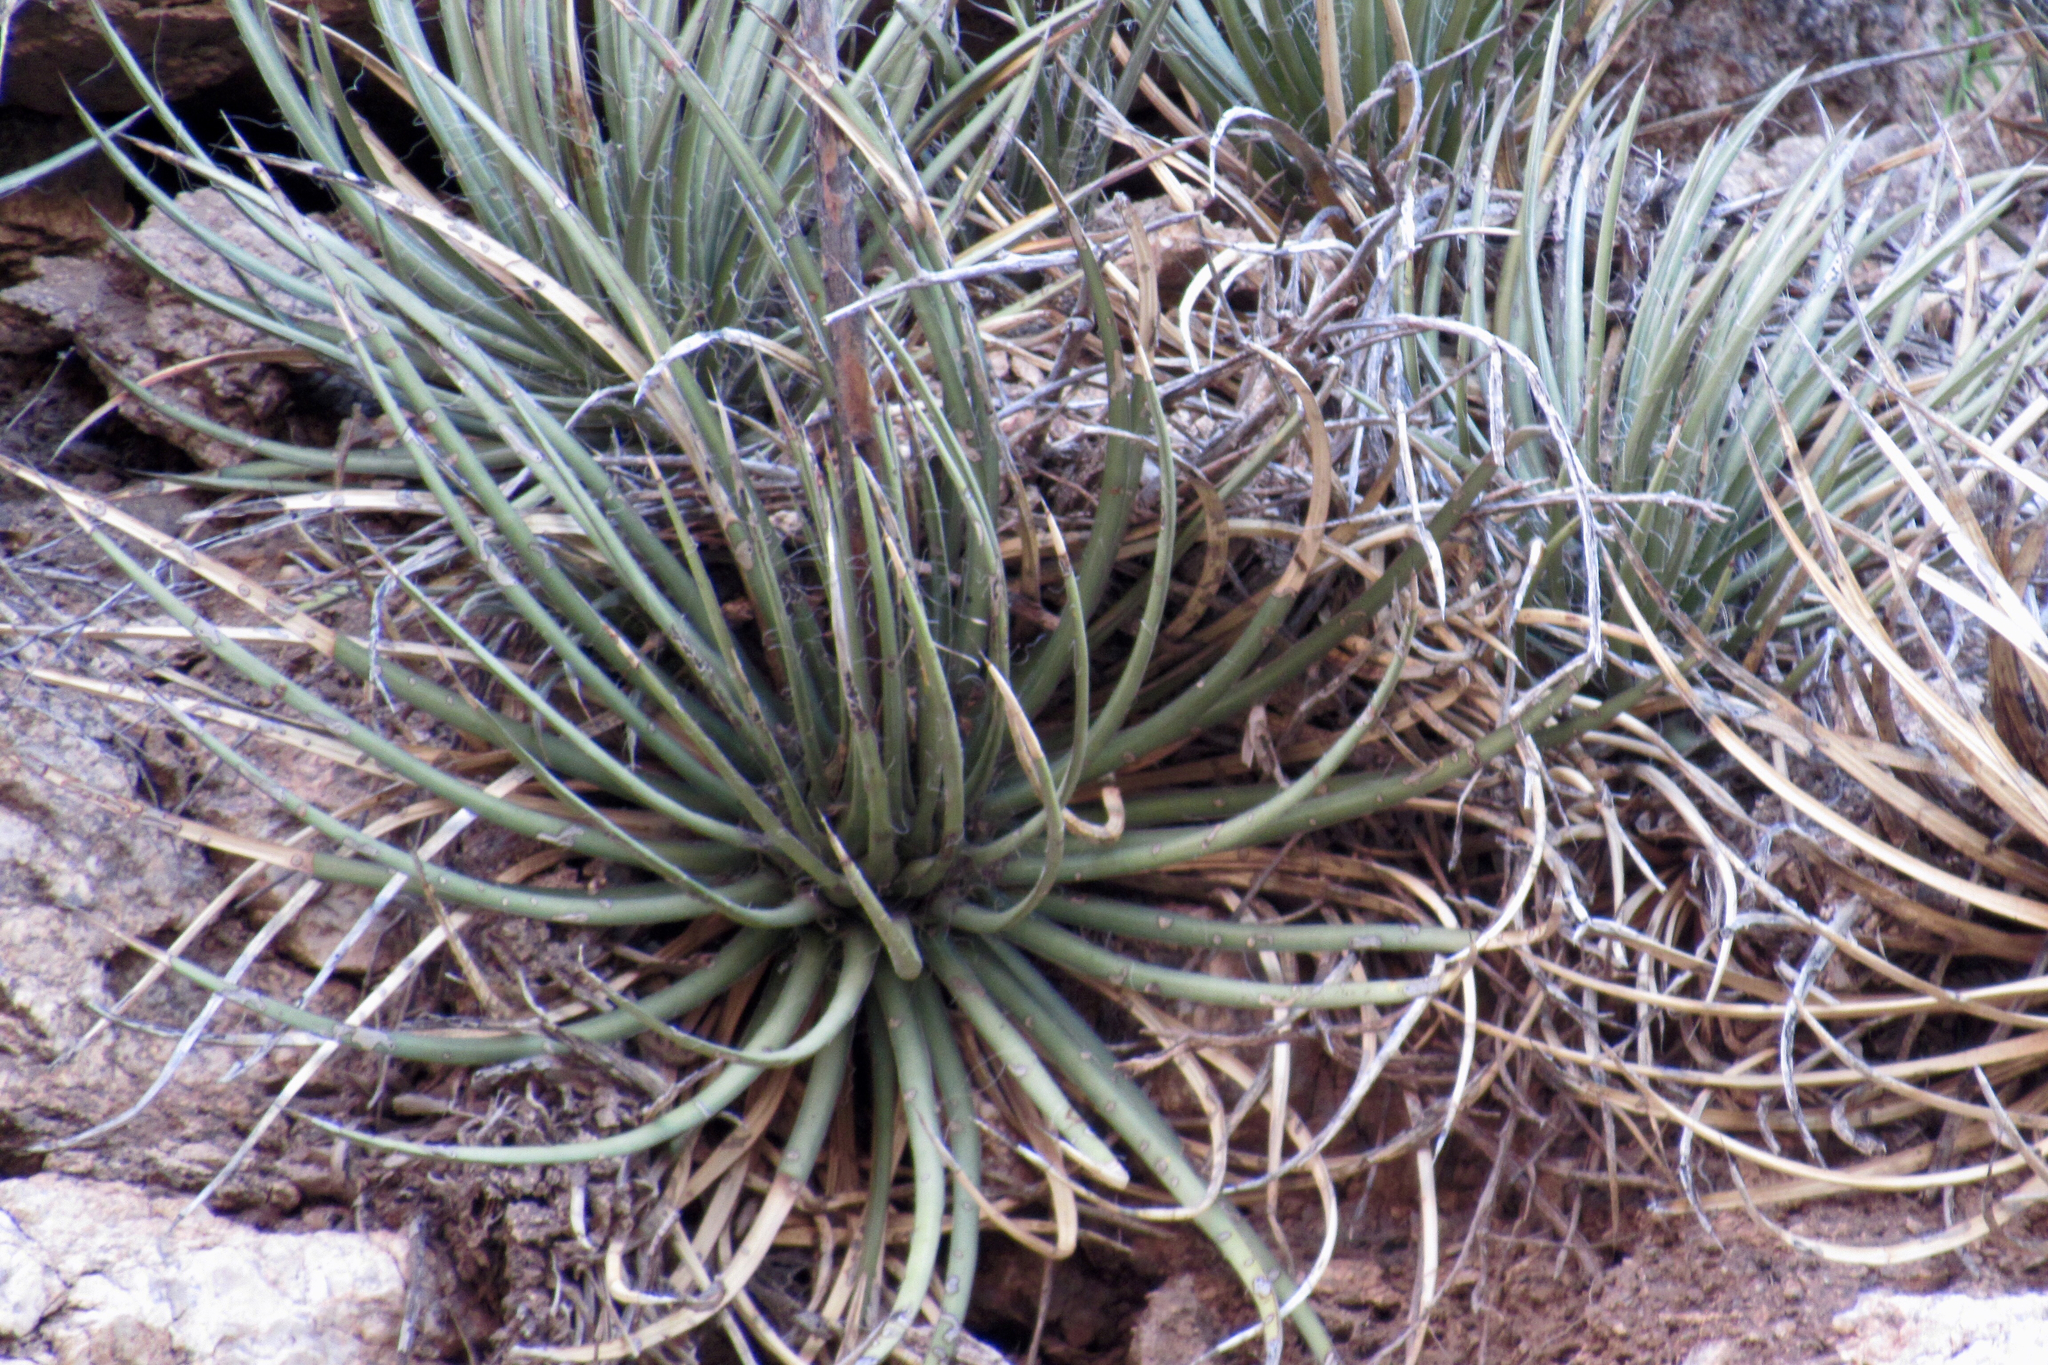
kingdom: Plantae
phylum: Tracheophyta
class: Liliopsida
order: Asparagales
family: Asparagaceae
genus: Agave
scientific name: Agave schottii
